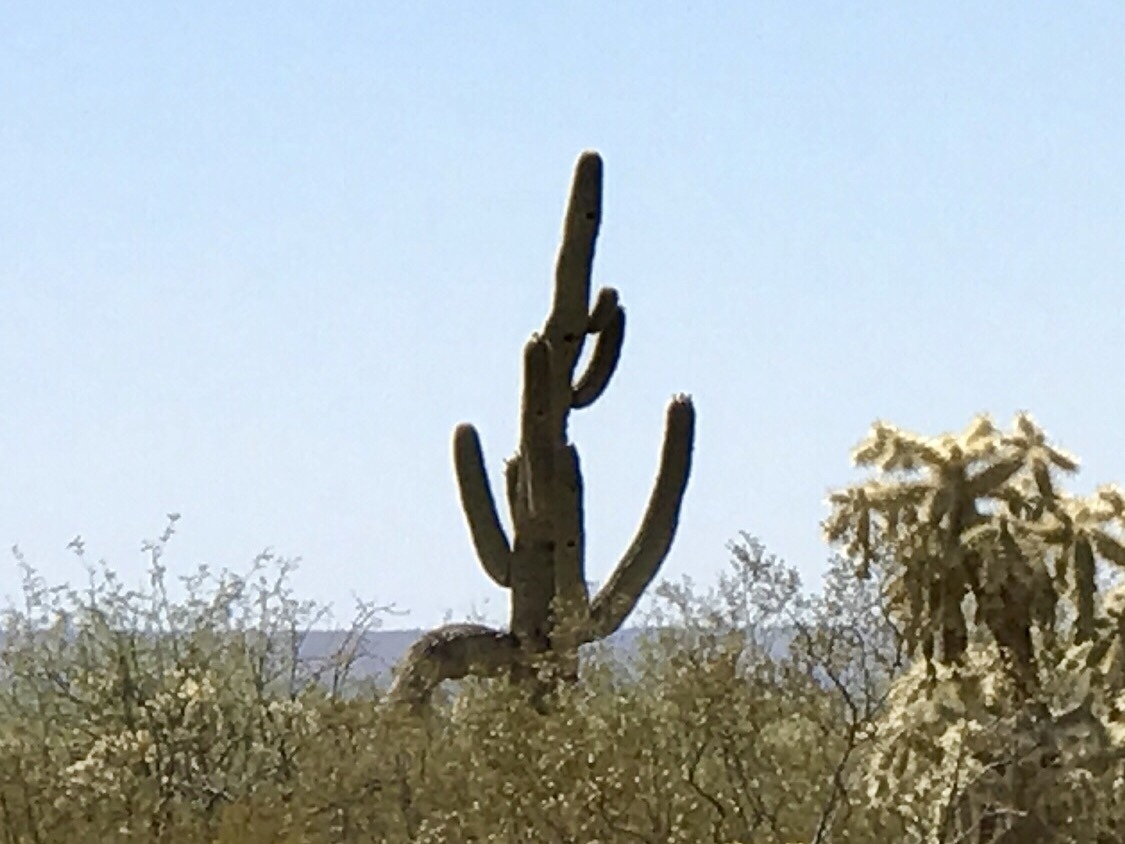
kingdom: Plantae
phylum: Tracheophyta
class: Magnoliopsida
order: Caryophyllales
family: Cactaceae
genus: Carnegiea
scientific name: Carnegiea gigantea
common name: Saguaro
